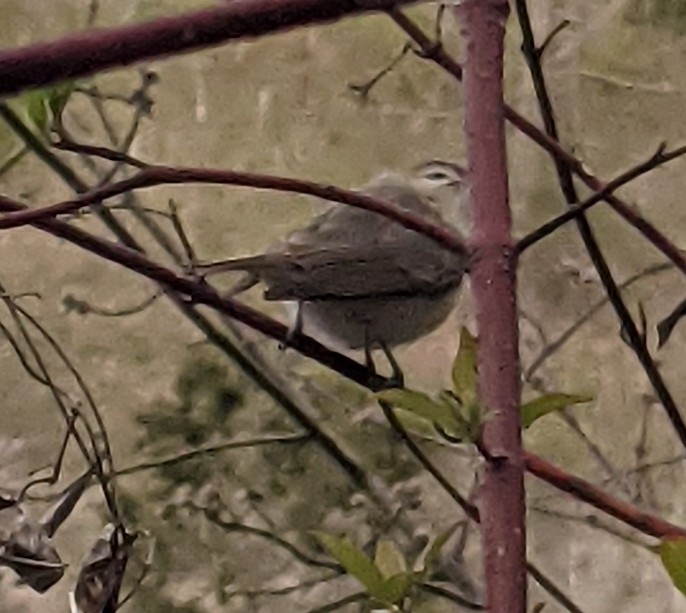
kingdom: Animalia
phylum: Chordata
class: Aves
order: Passeriformes
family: Vireonidae
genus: Vireo
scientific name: Vireo gilvus
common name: Warbling vireo
